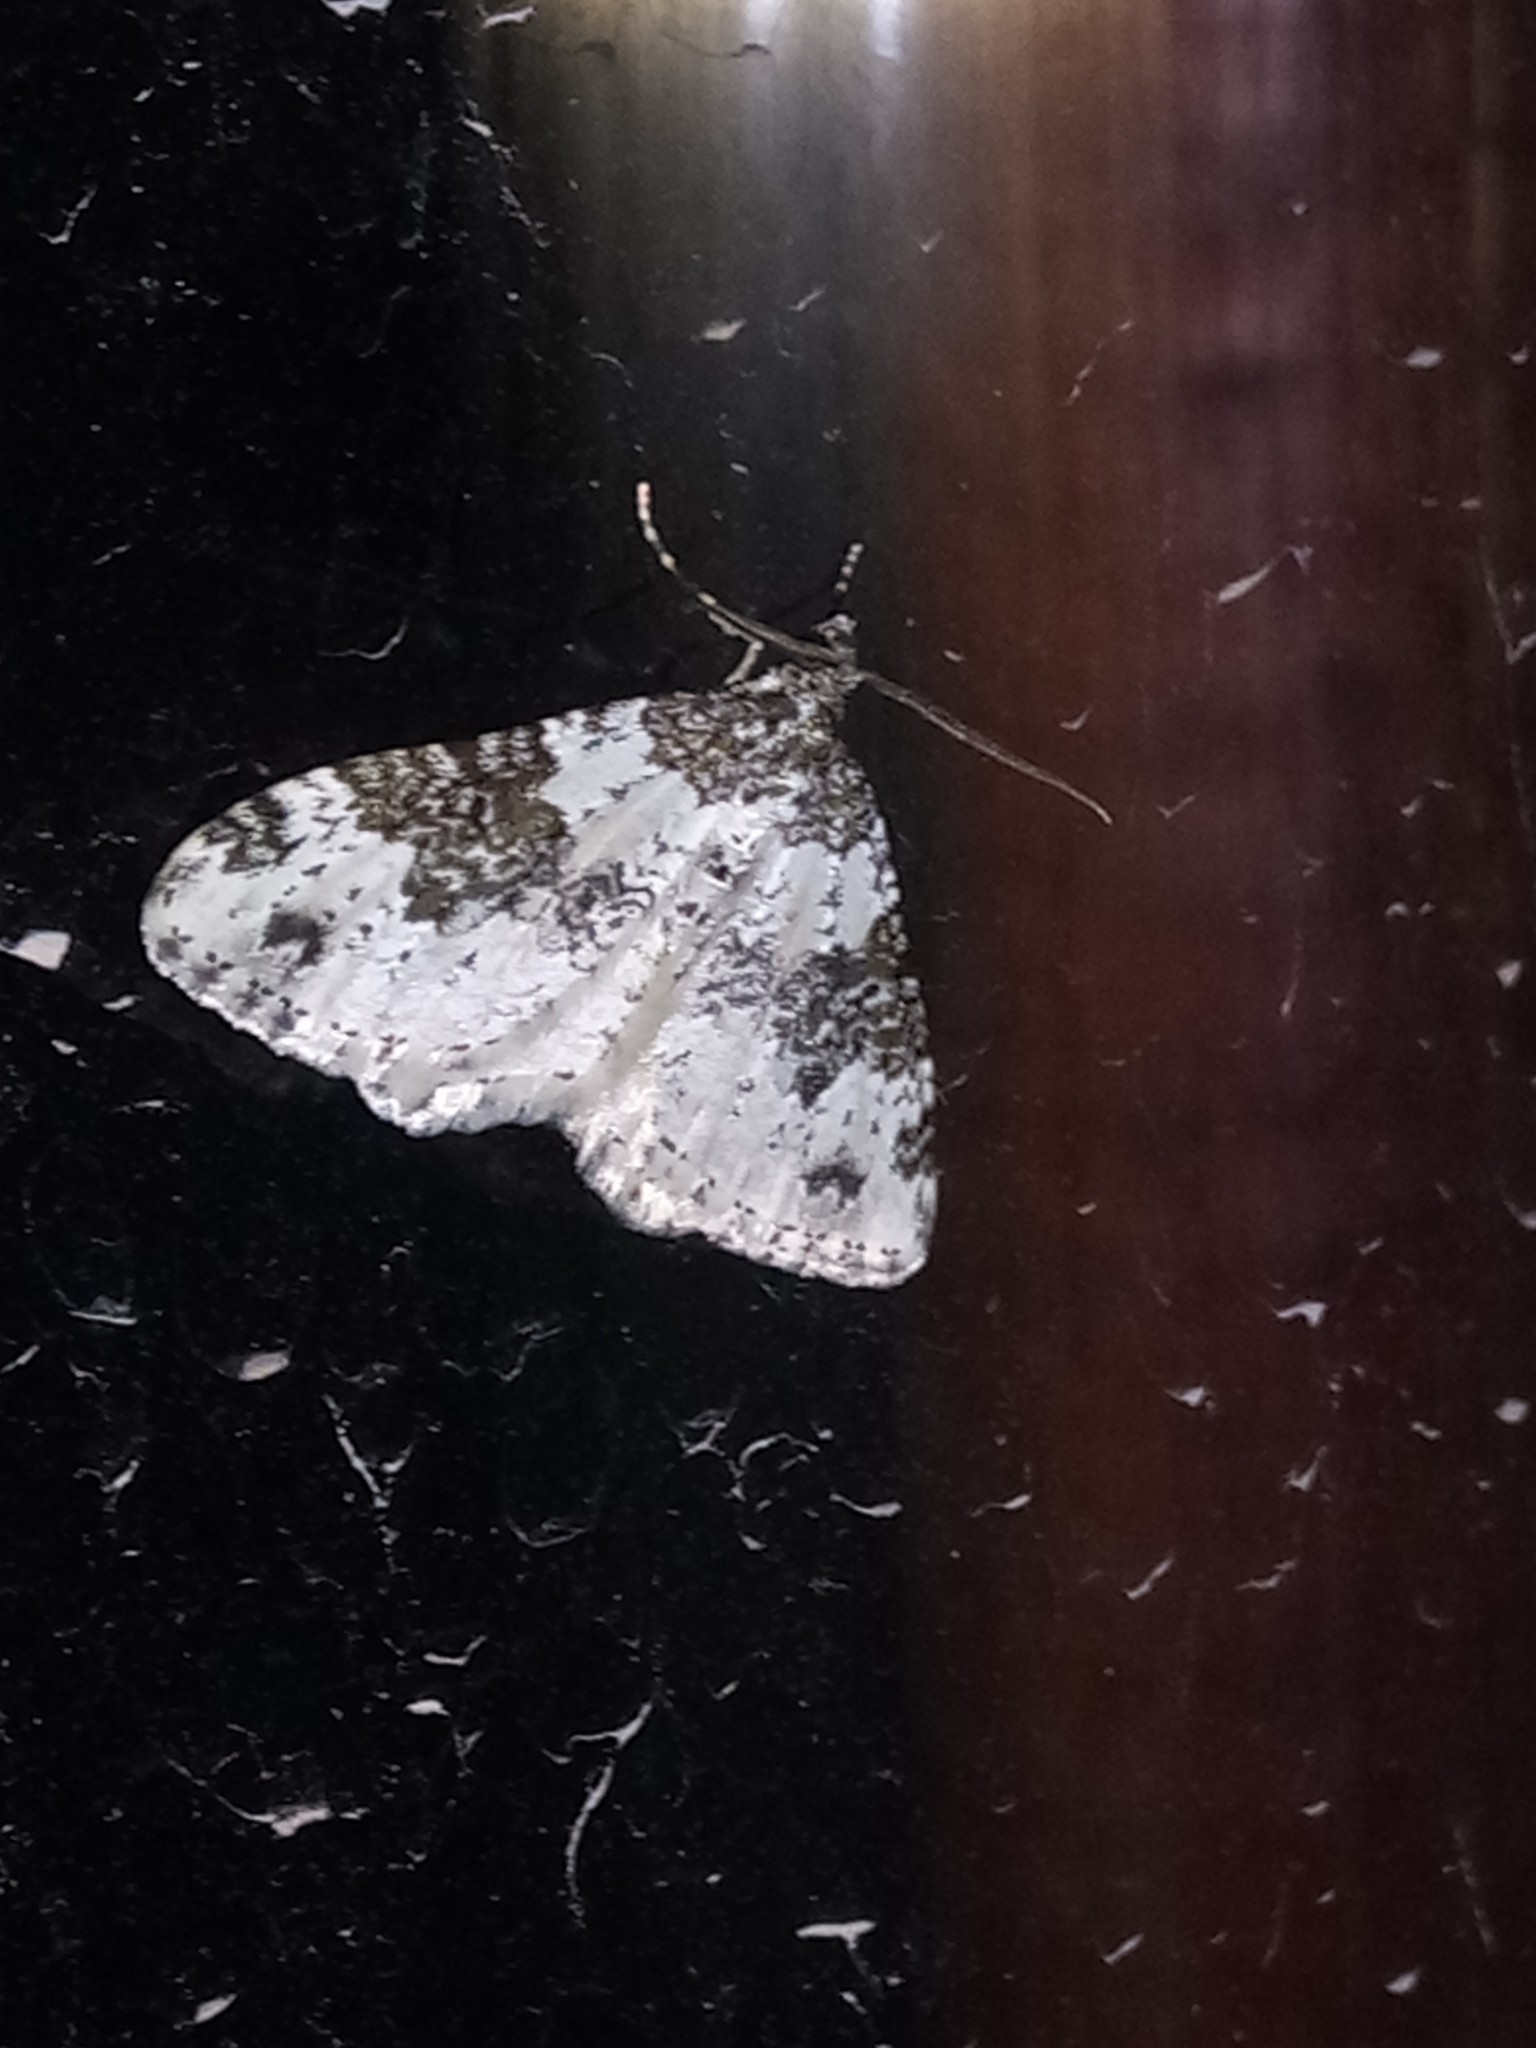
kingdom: Animalia
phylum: Arthropoda
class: Insecta
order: Lepidoptera
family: Geometridae
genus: Xanthorhoe
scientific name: Xanthorhoe disjunctaria
